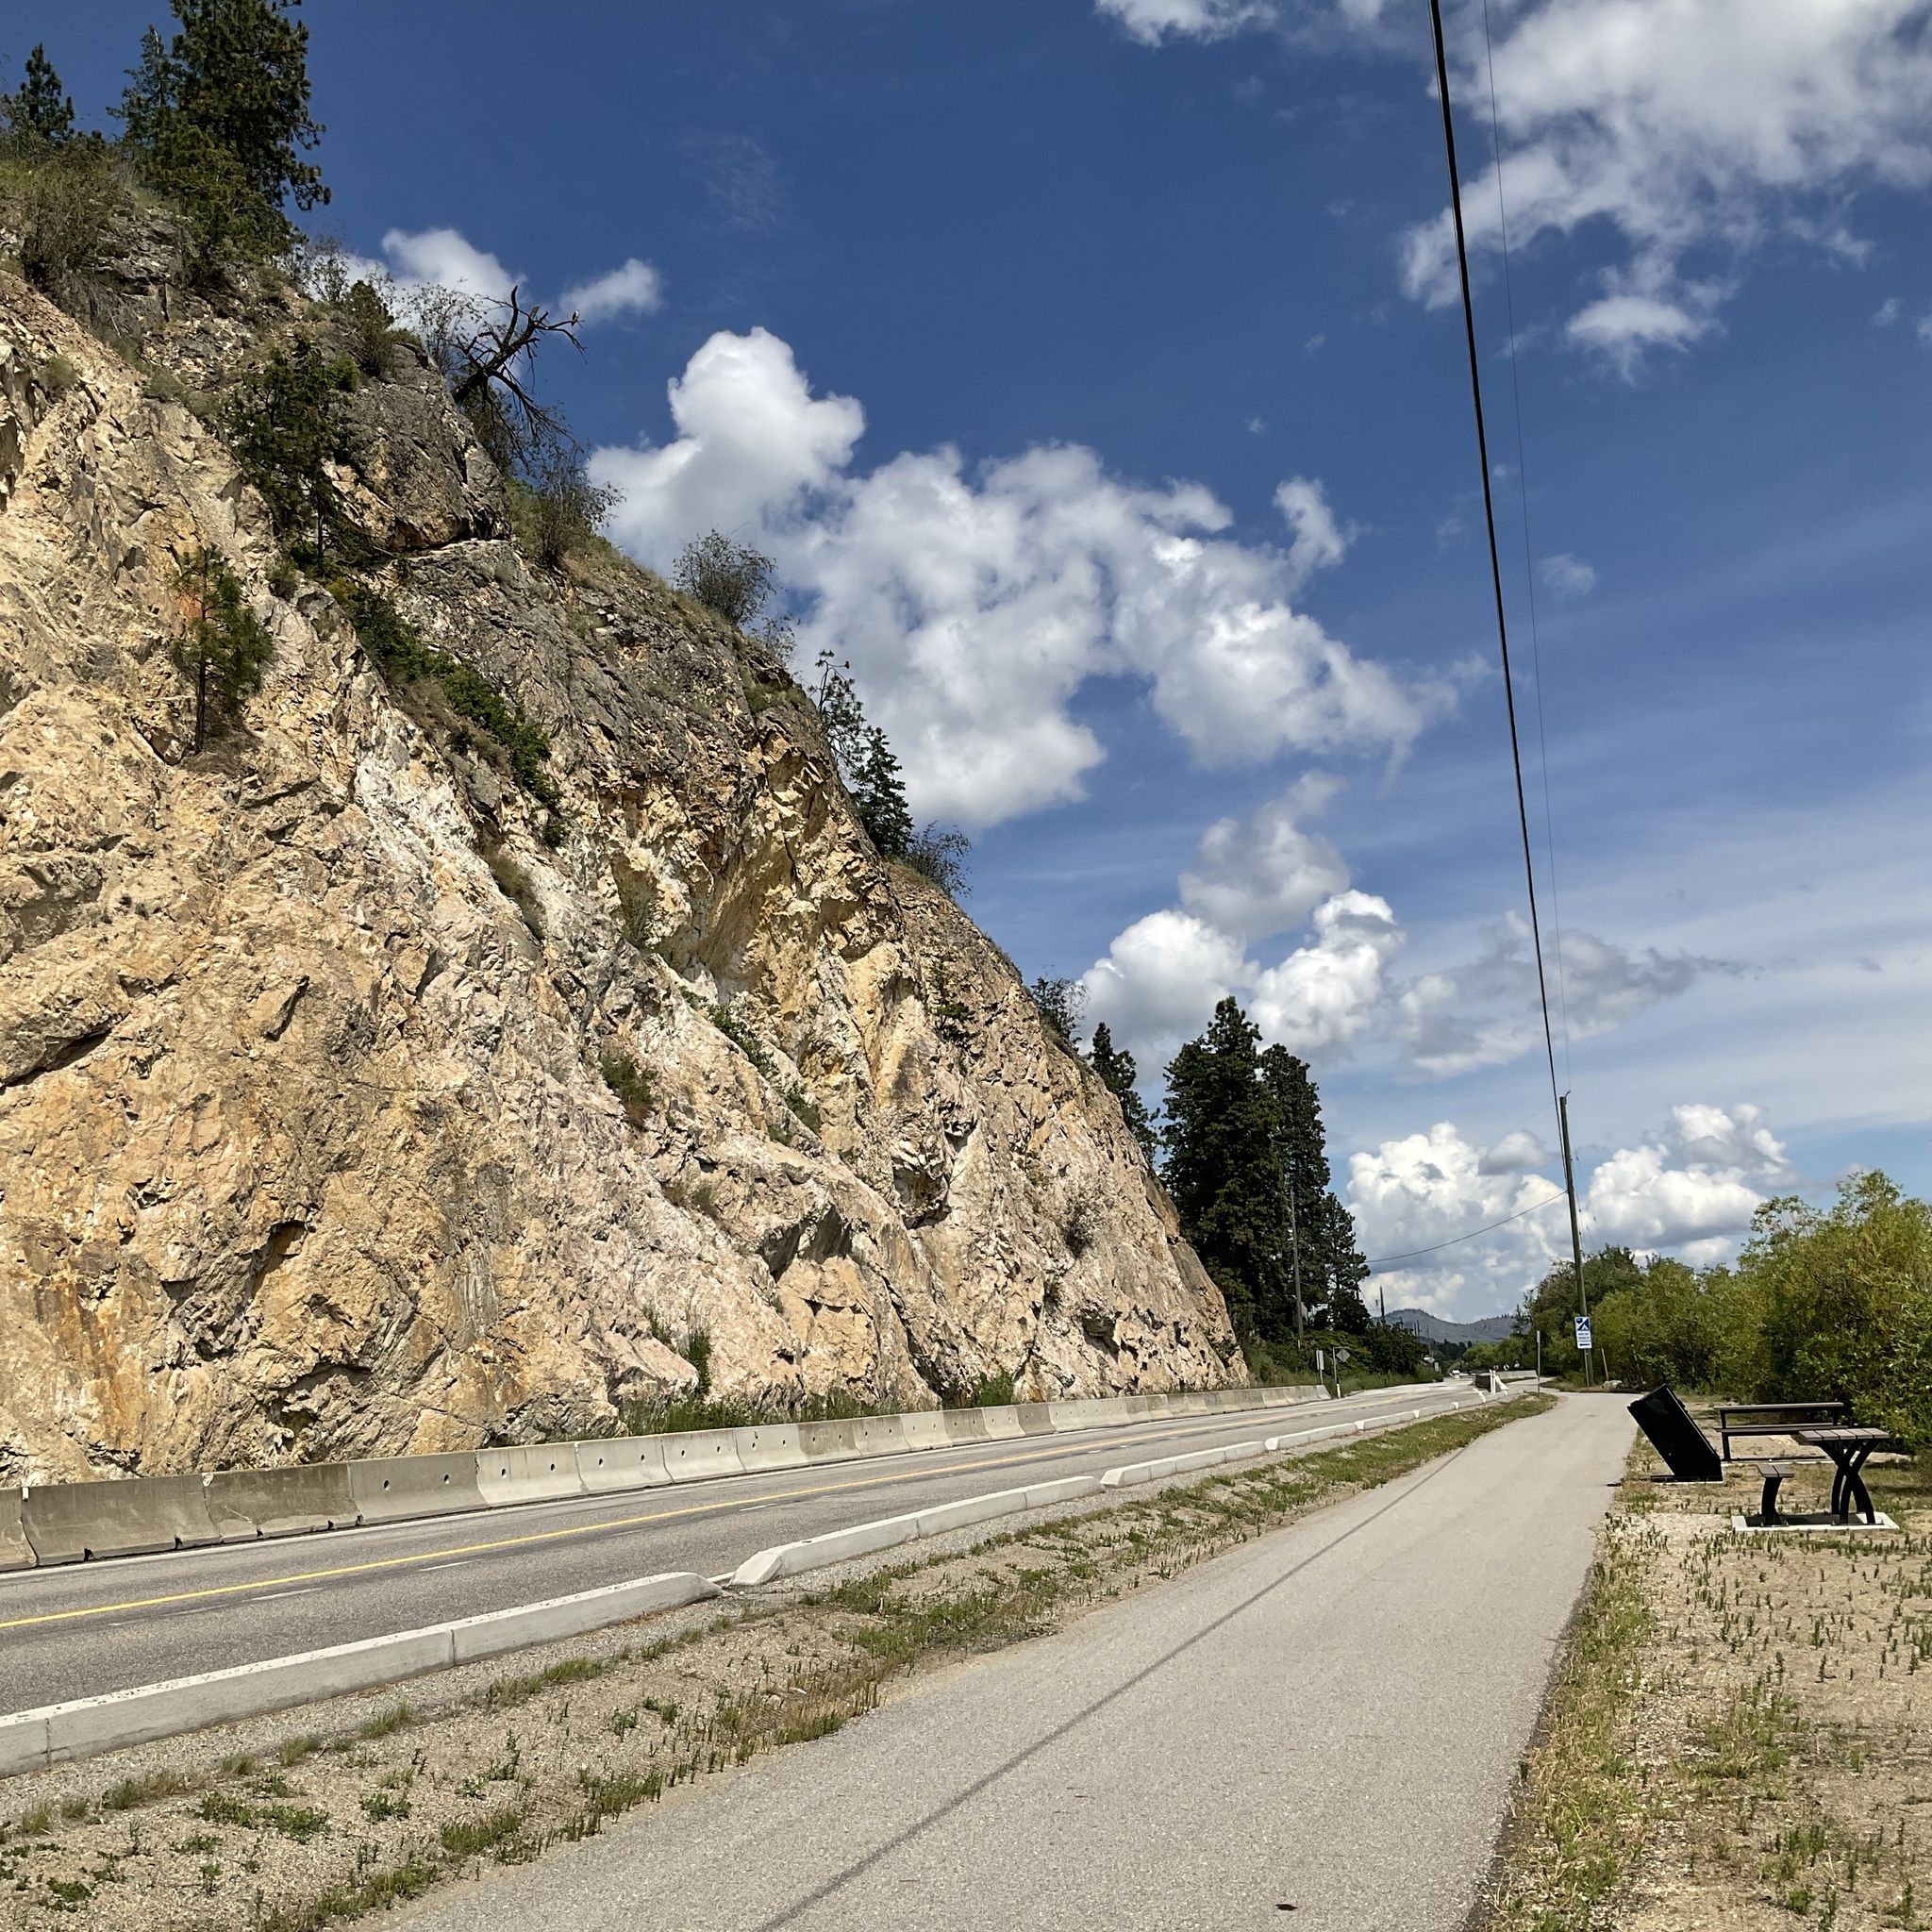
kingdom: Animalia
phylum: Chordata
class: Aves
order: Accipitriformes
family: Pandionidae
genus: Pandion
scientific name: Pandion haliaetus
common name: Osprey
